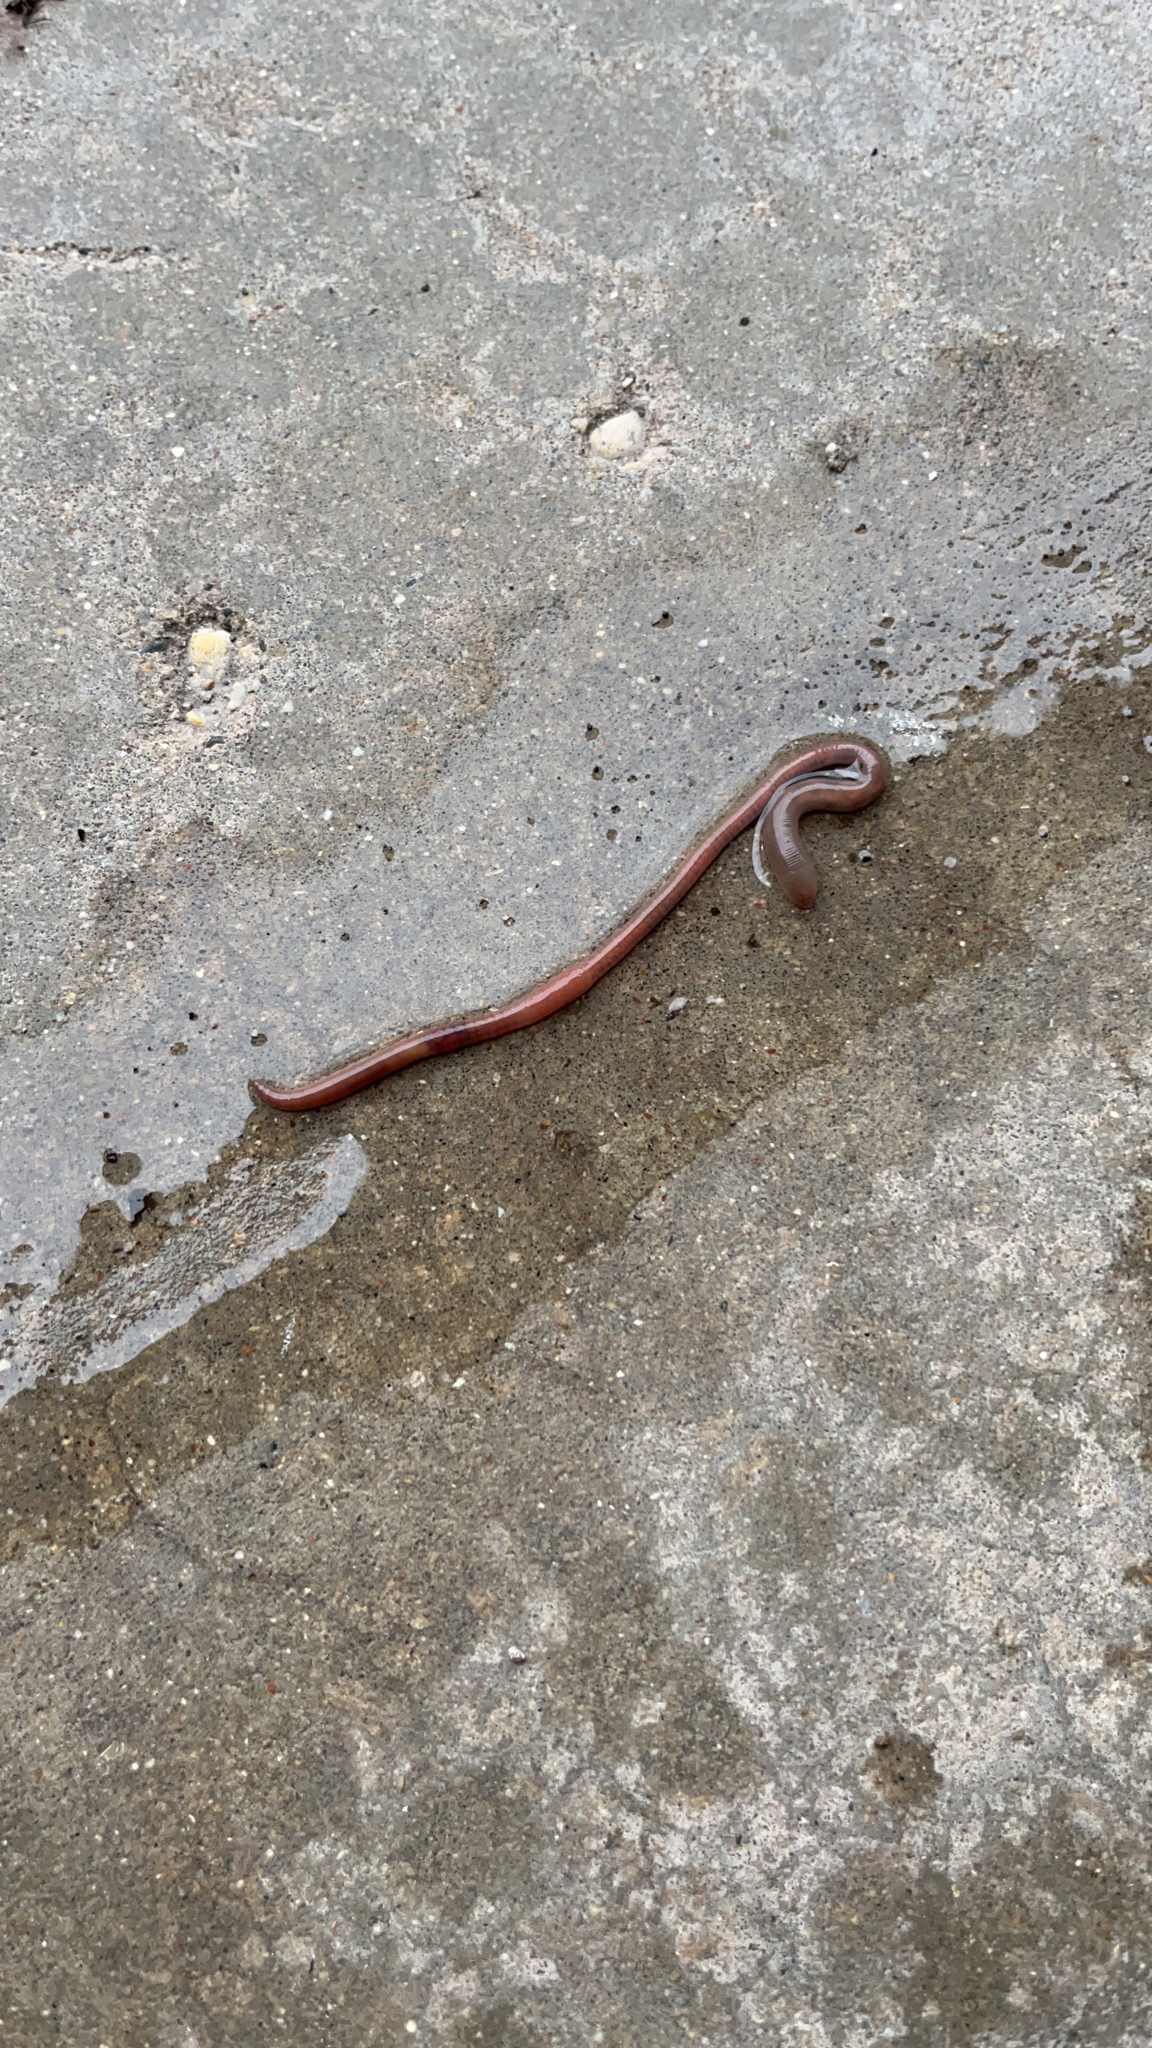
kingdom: Animalia
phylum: Annelida
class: Clitellata
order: Crassiclitellata
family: Lumbricidae
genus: Lumbricus
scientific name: Lumbricus terrestris
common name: Common earthworm
